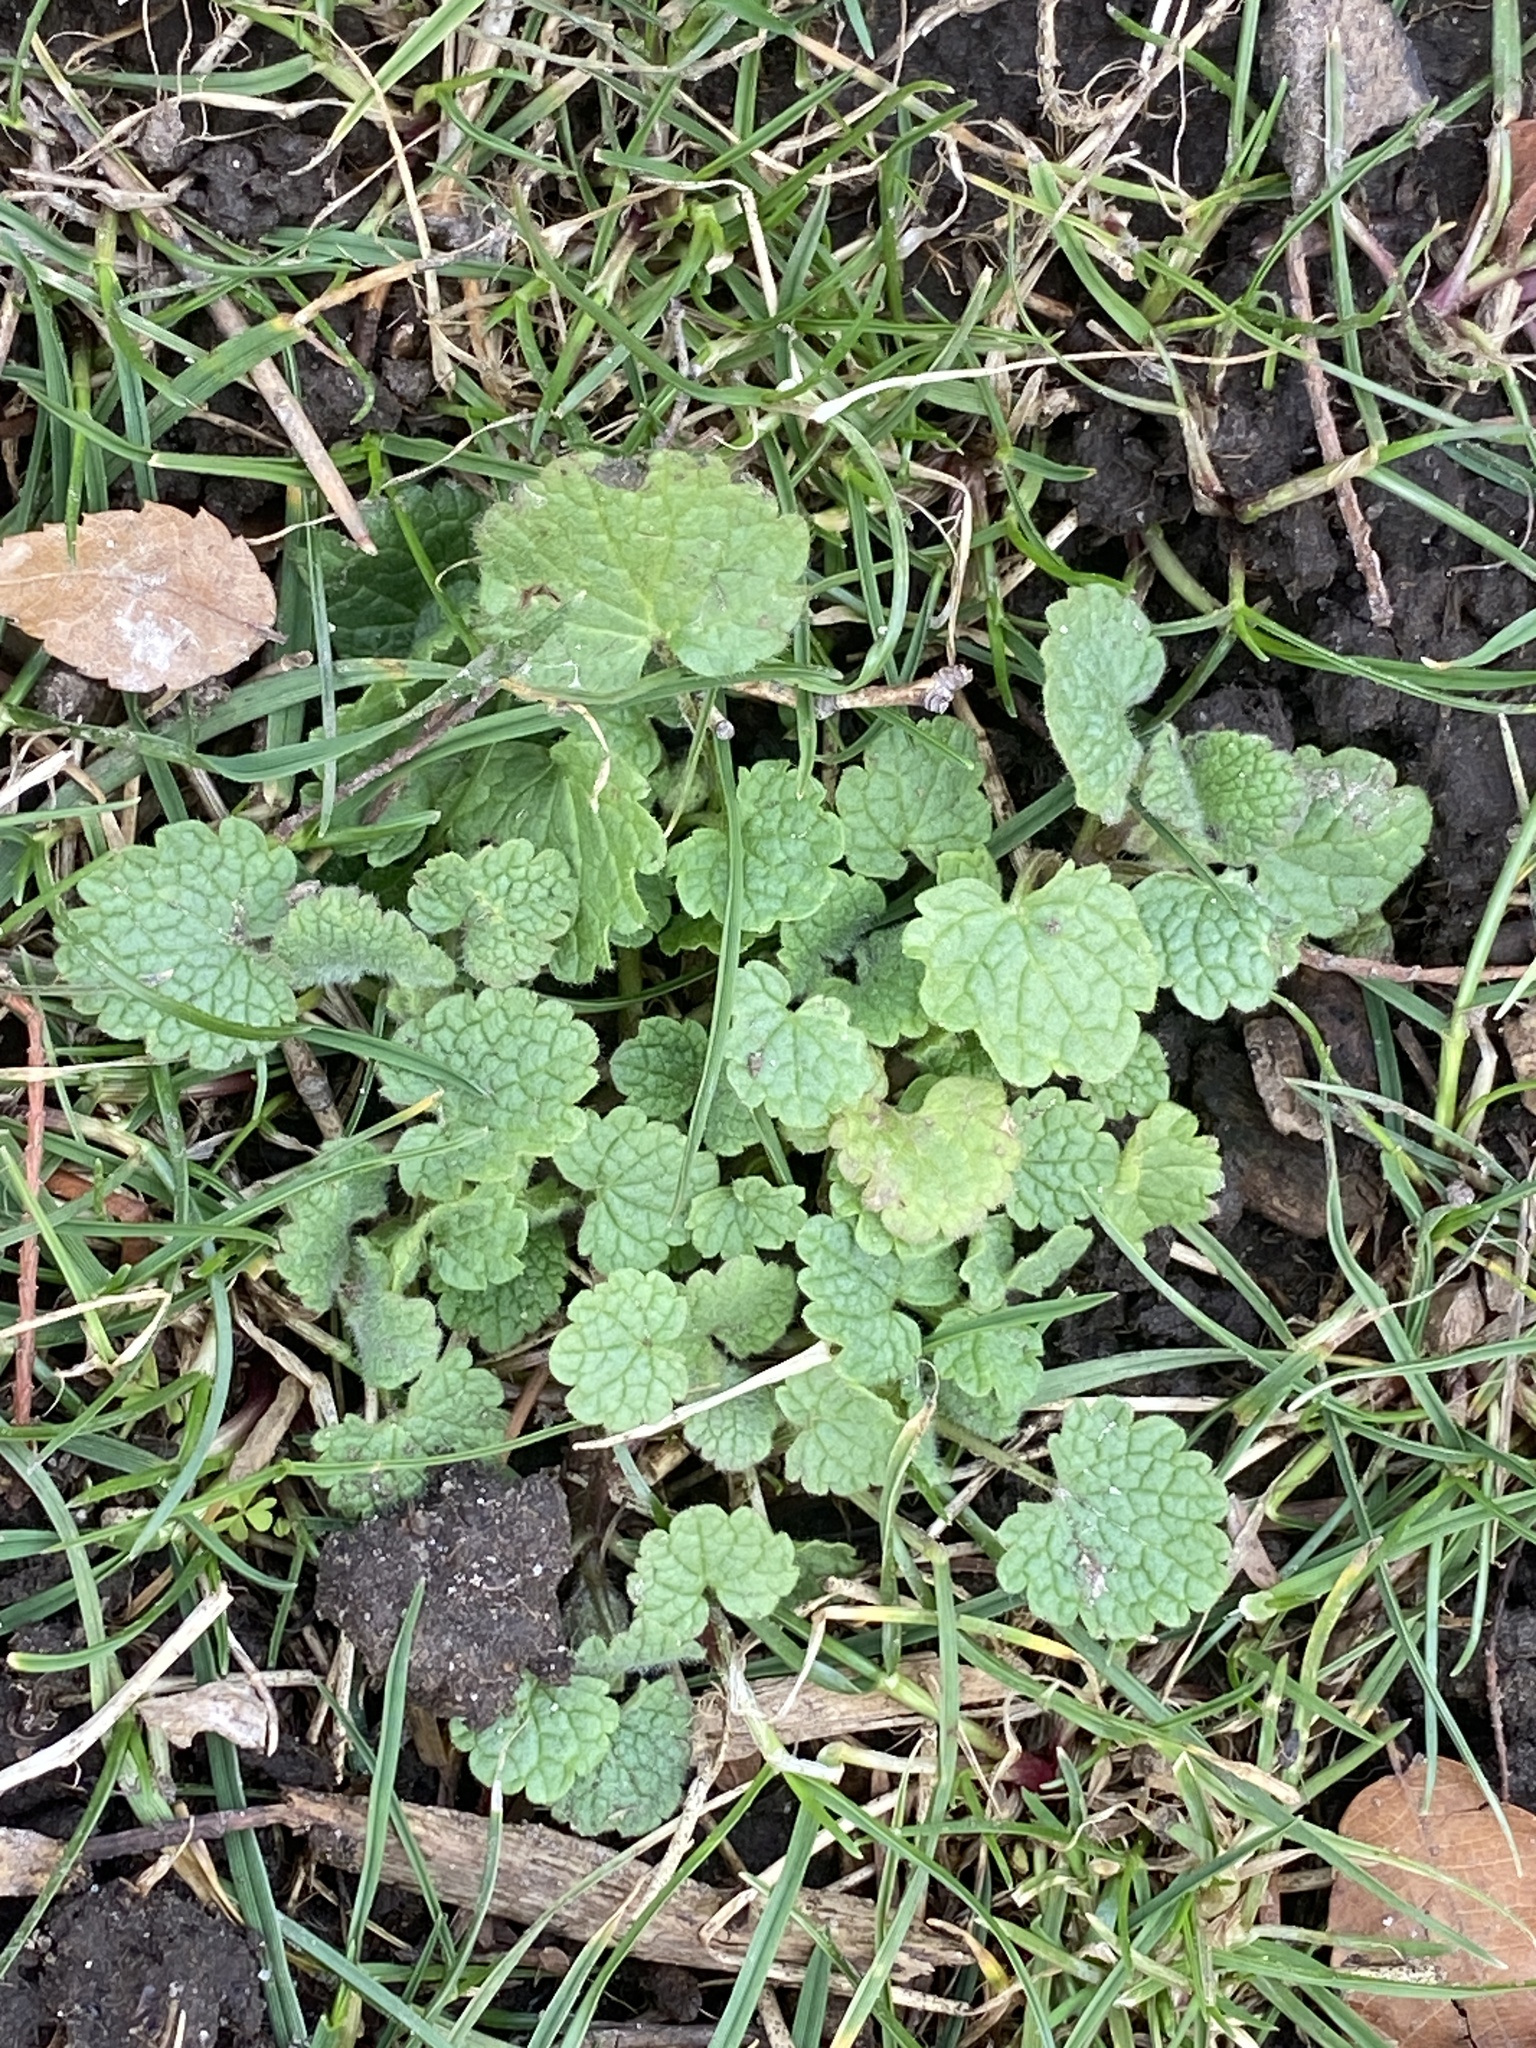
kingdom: Plantae
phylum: Tracheophyta
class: Magnoliopsida
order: Lamiales
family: Lamiaceae
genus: Lamium
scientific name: Lamium purpureum
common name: Red dead-nettle
